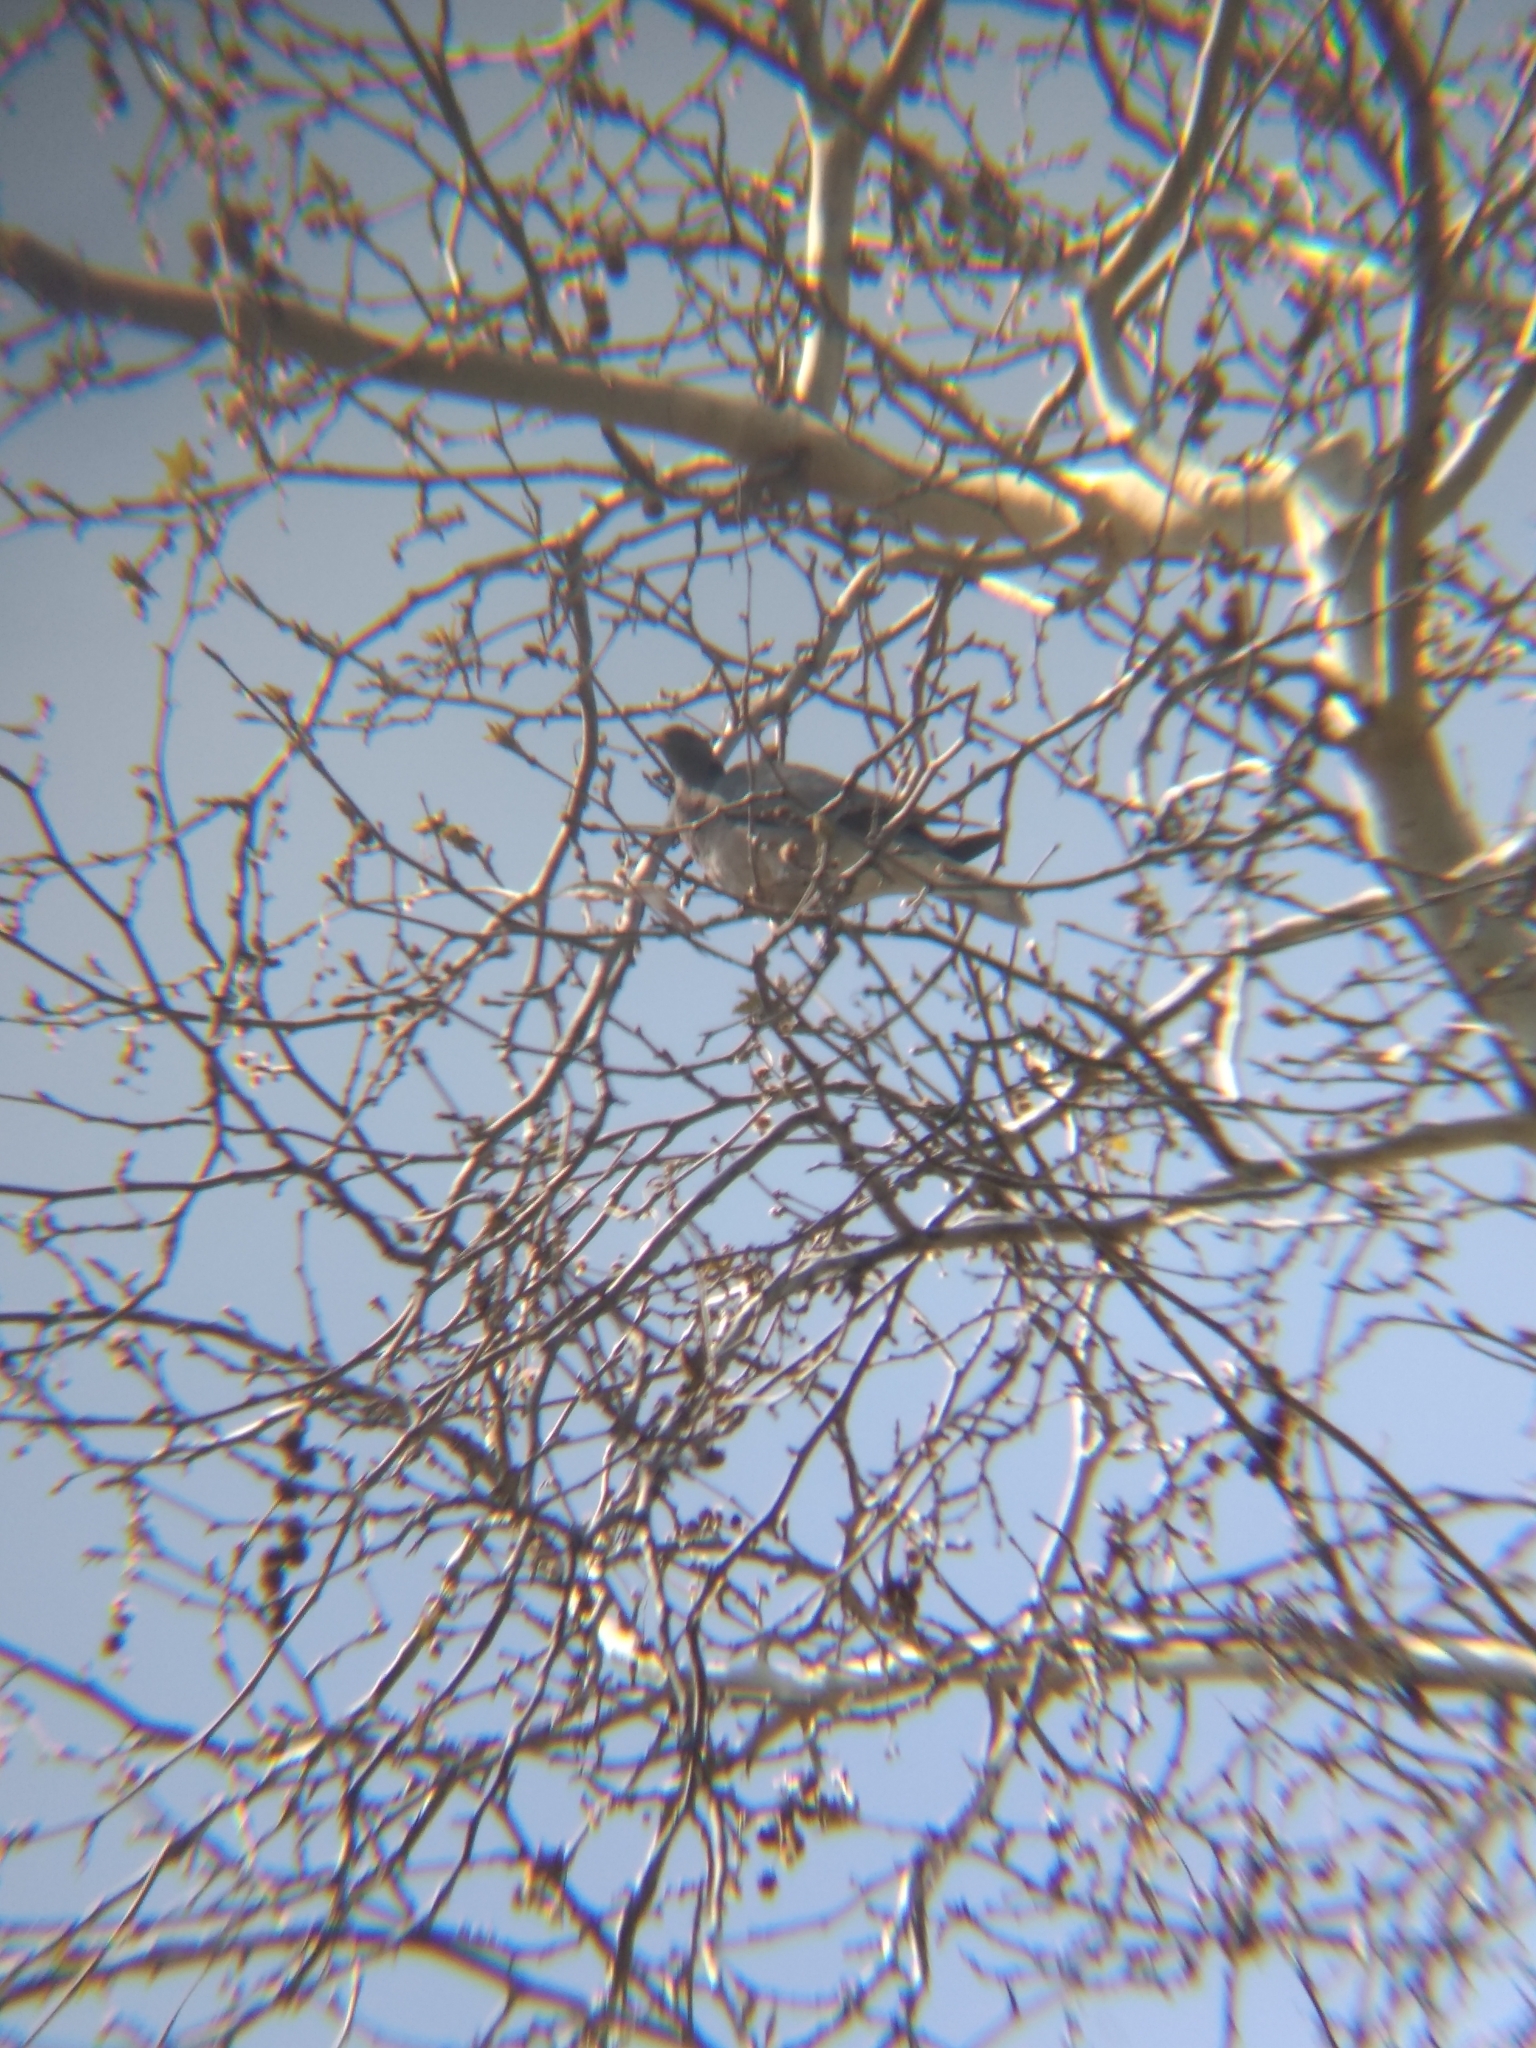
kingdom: Animalia
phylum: Chordata
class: Aves
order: Columbiformes
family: Columbidae
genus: Patagioenas
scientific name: Patagioenas fasciata
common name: Band-tailed pigeon
